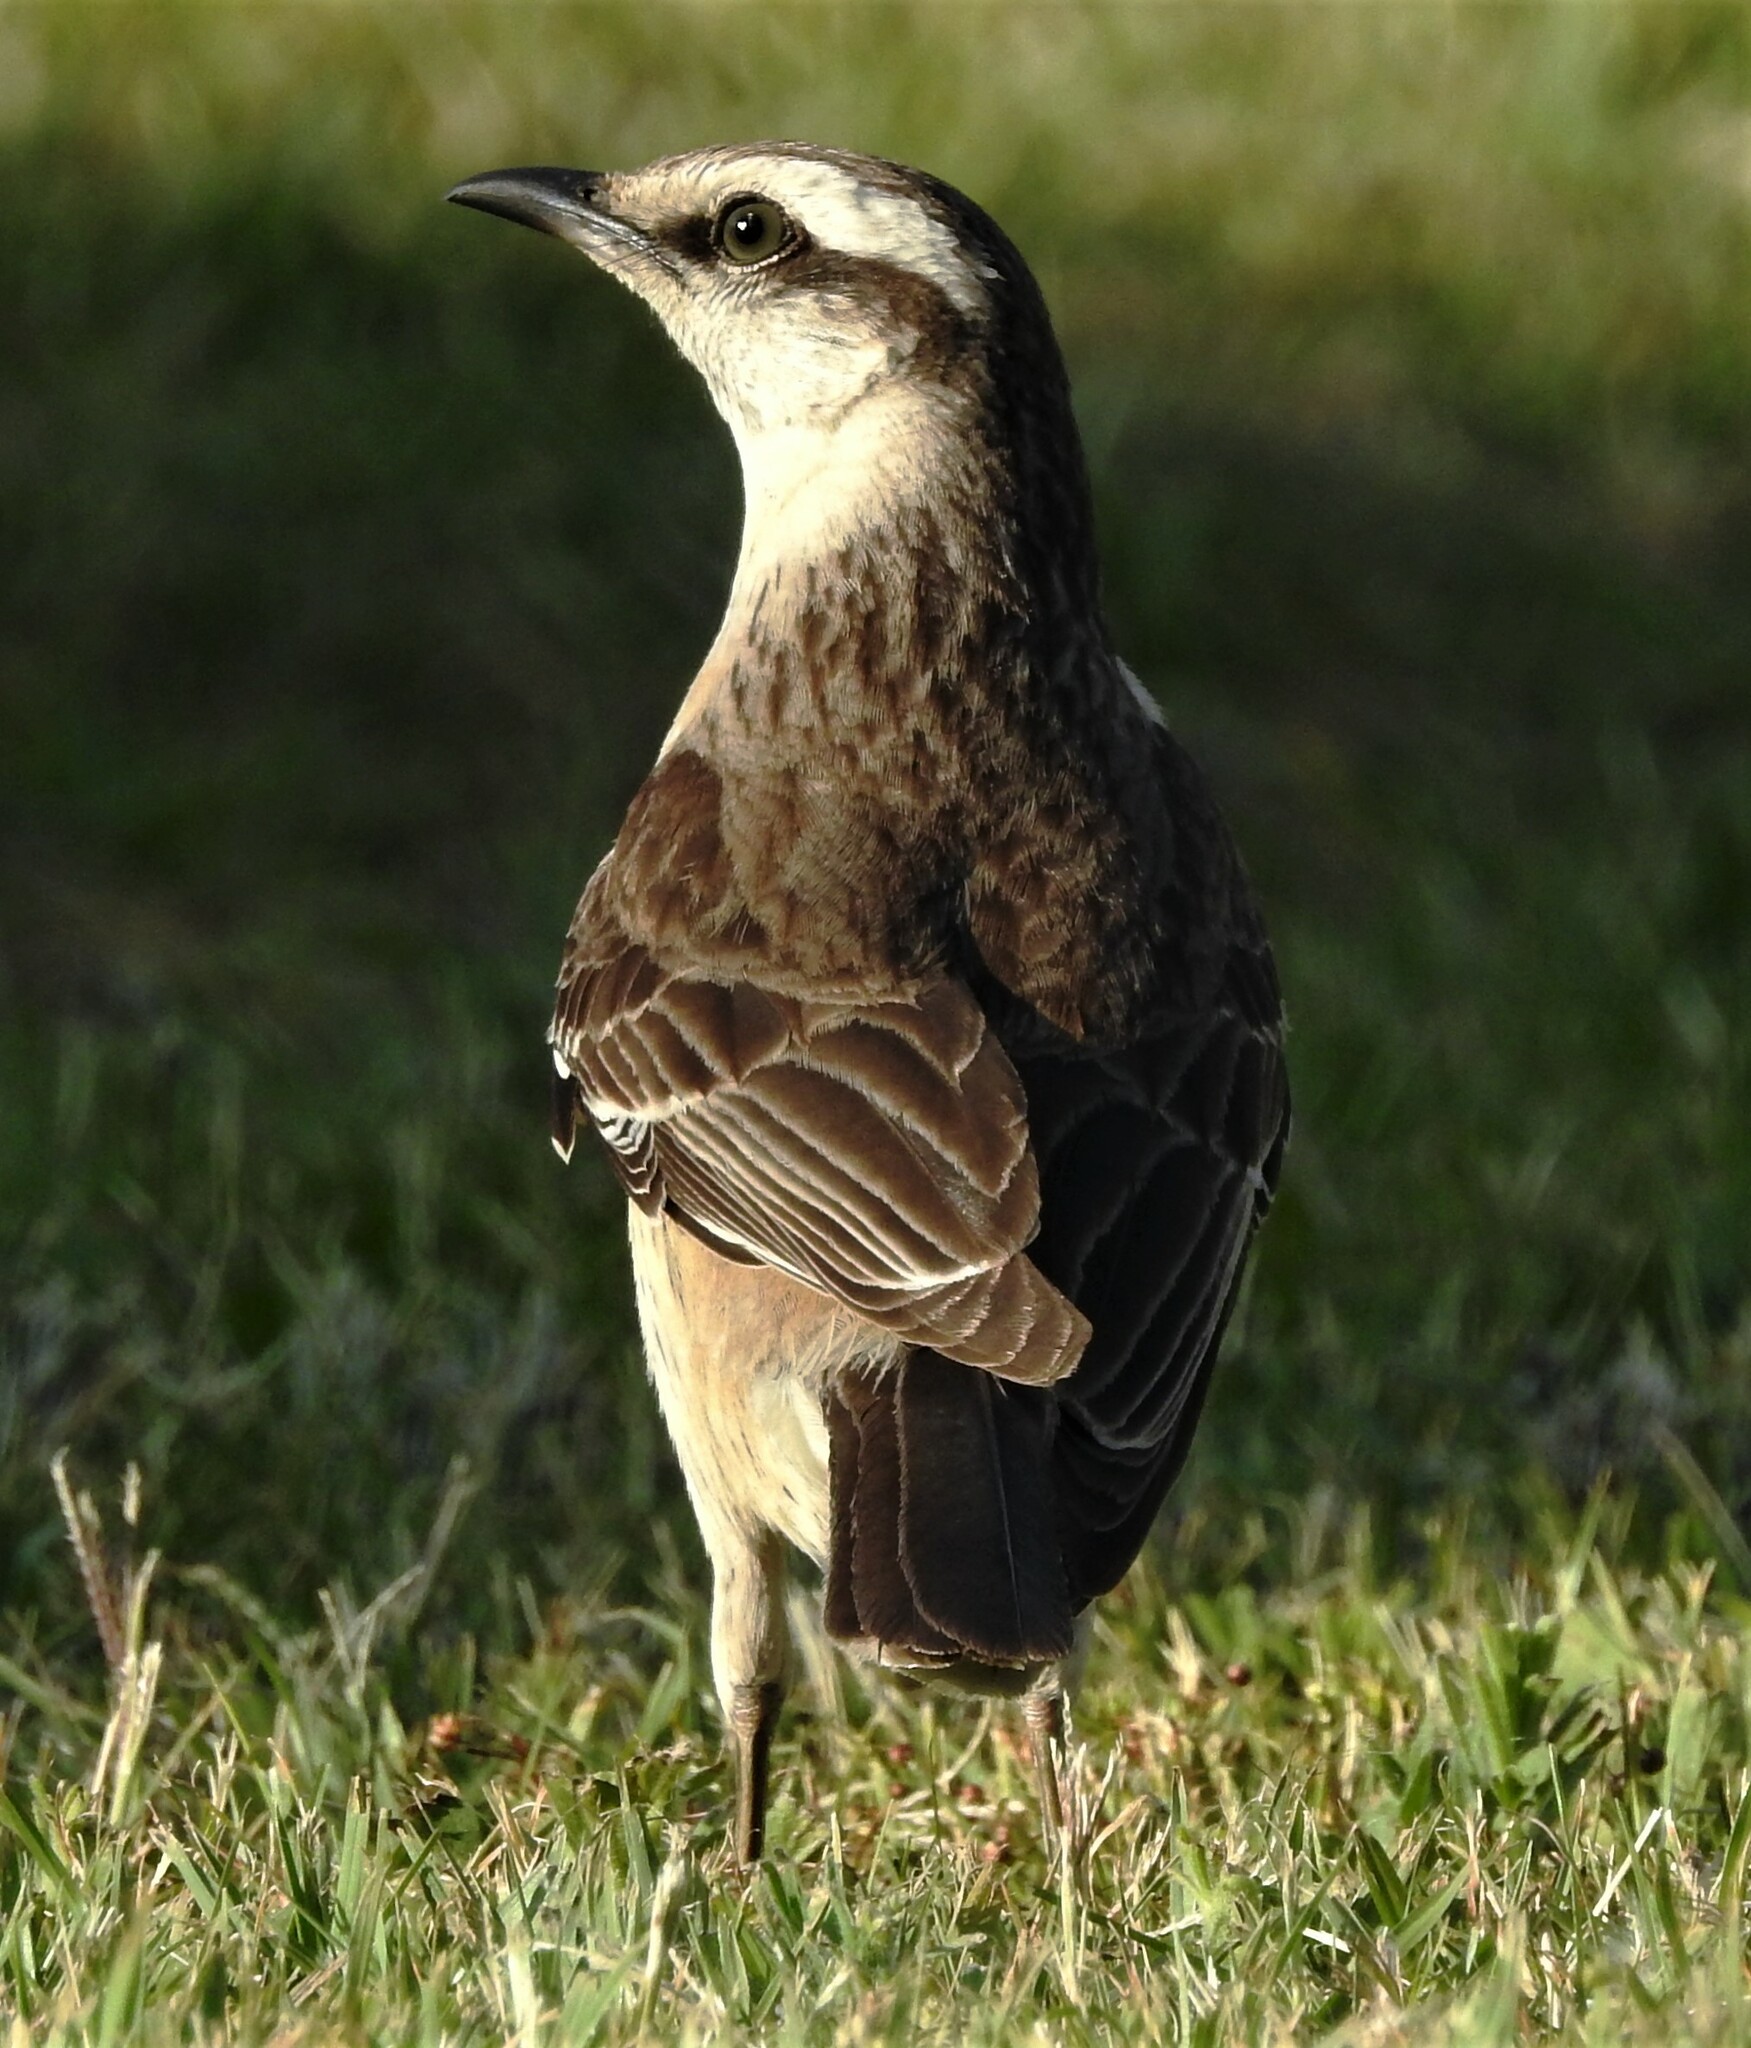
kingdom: Animalia
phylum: Chordata
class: Aves
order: Passeriformes
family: Mimidae
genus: Mimus
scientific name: Mimus saturninus
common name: Chalk-browed mockingbird
